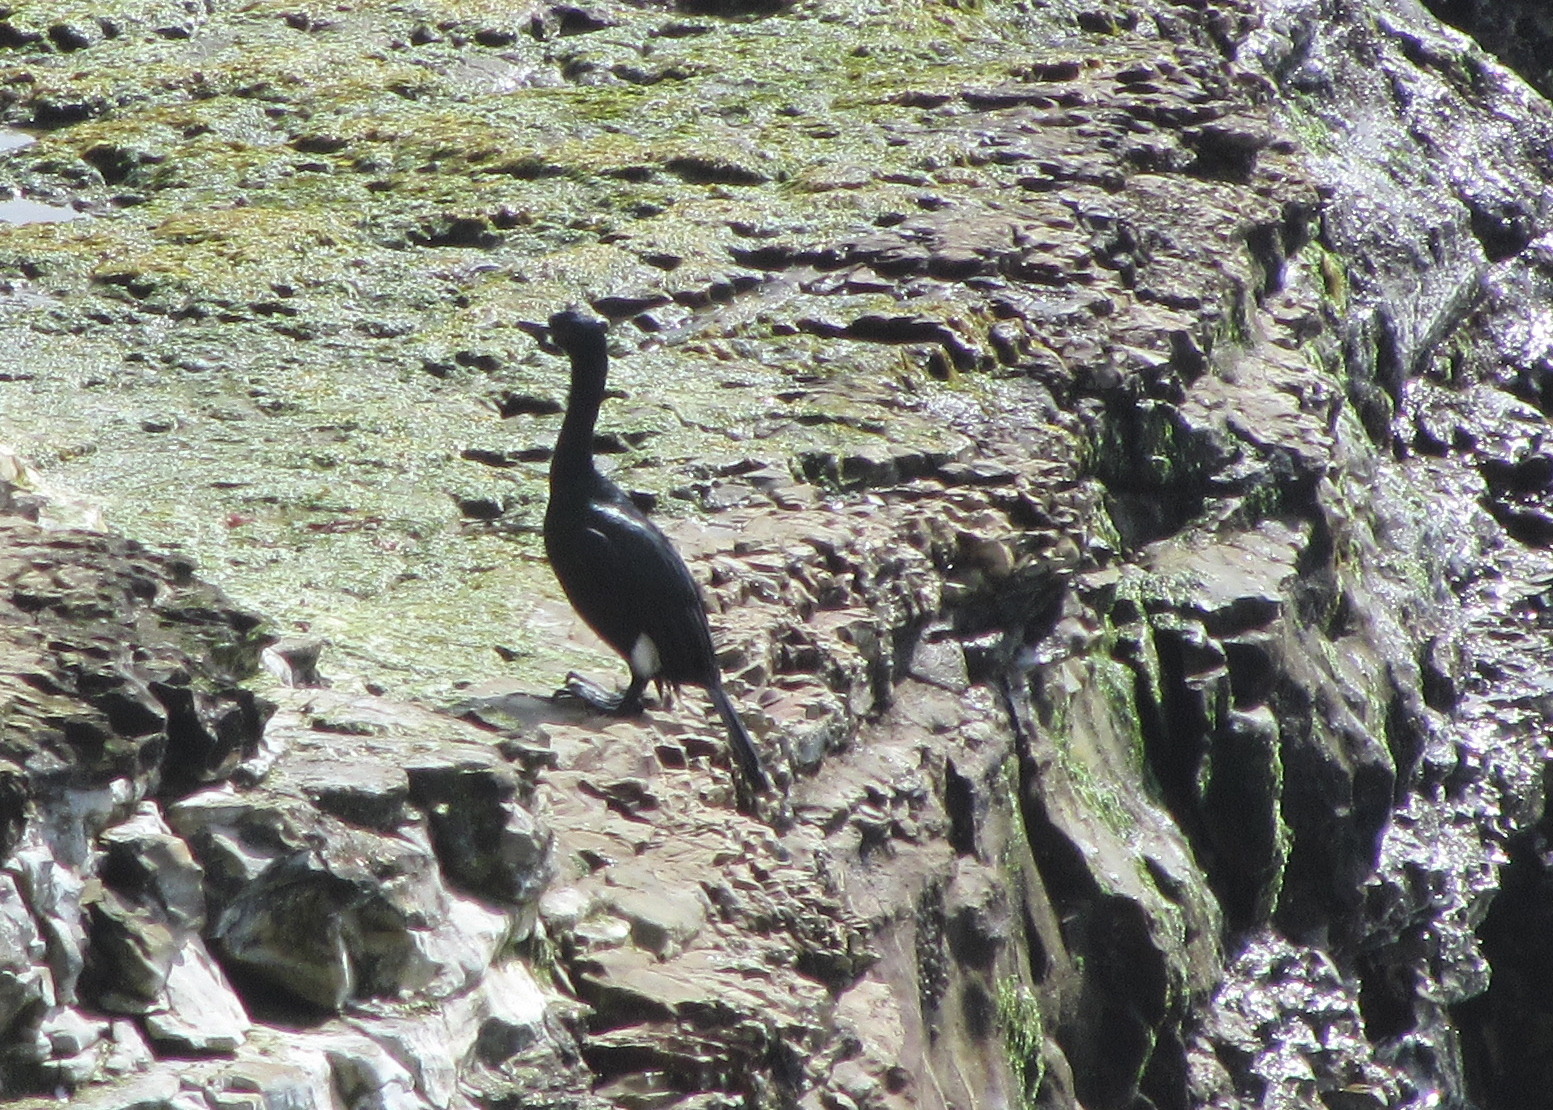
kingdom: Animalia
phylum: Chordata
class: Aves
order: Suliformes
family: Phalacrocoracidae
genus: Phalacrocorax
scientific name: Phalacrocorax pelagicus
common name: Pelagic cormorant
